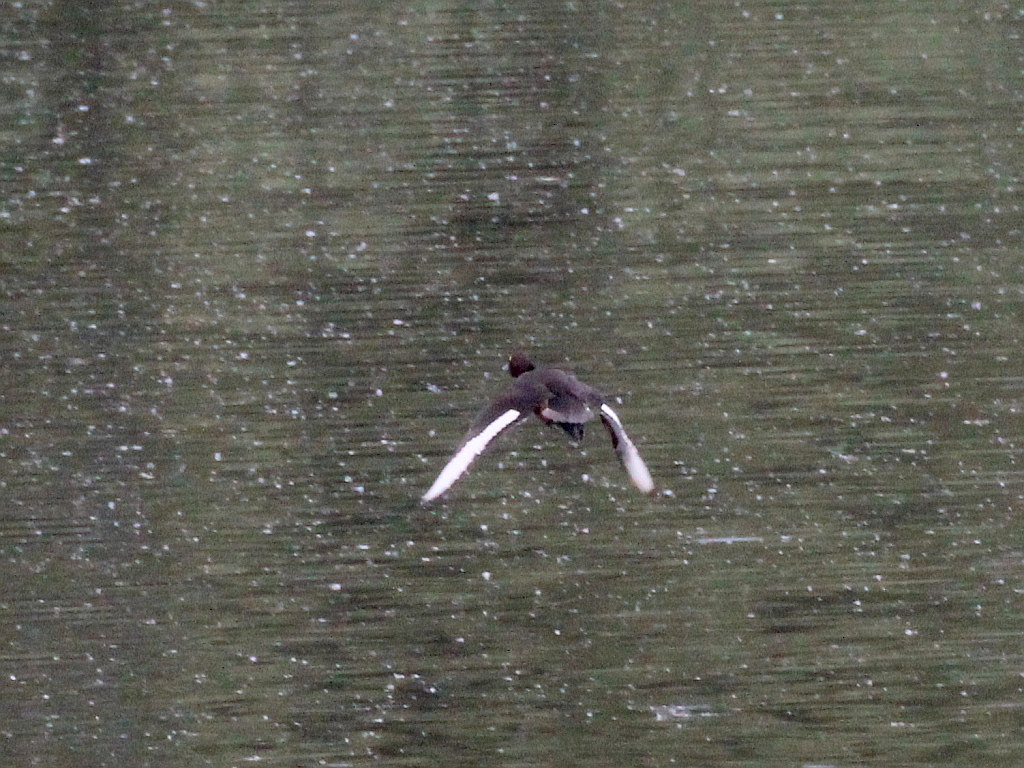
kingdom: Animalia
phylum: Chordata
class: Aves
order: Anseriformes
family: Anatidae
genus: Aythya
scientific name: Aythya nyroca
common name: Ferruginous duck
